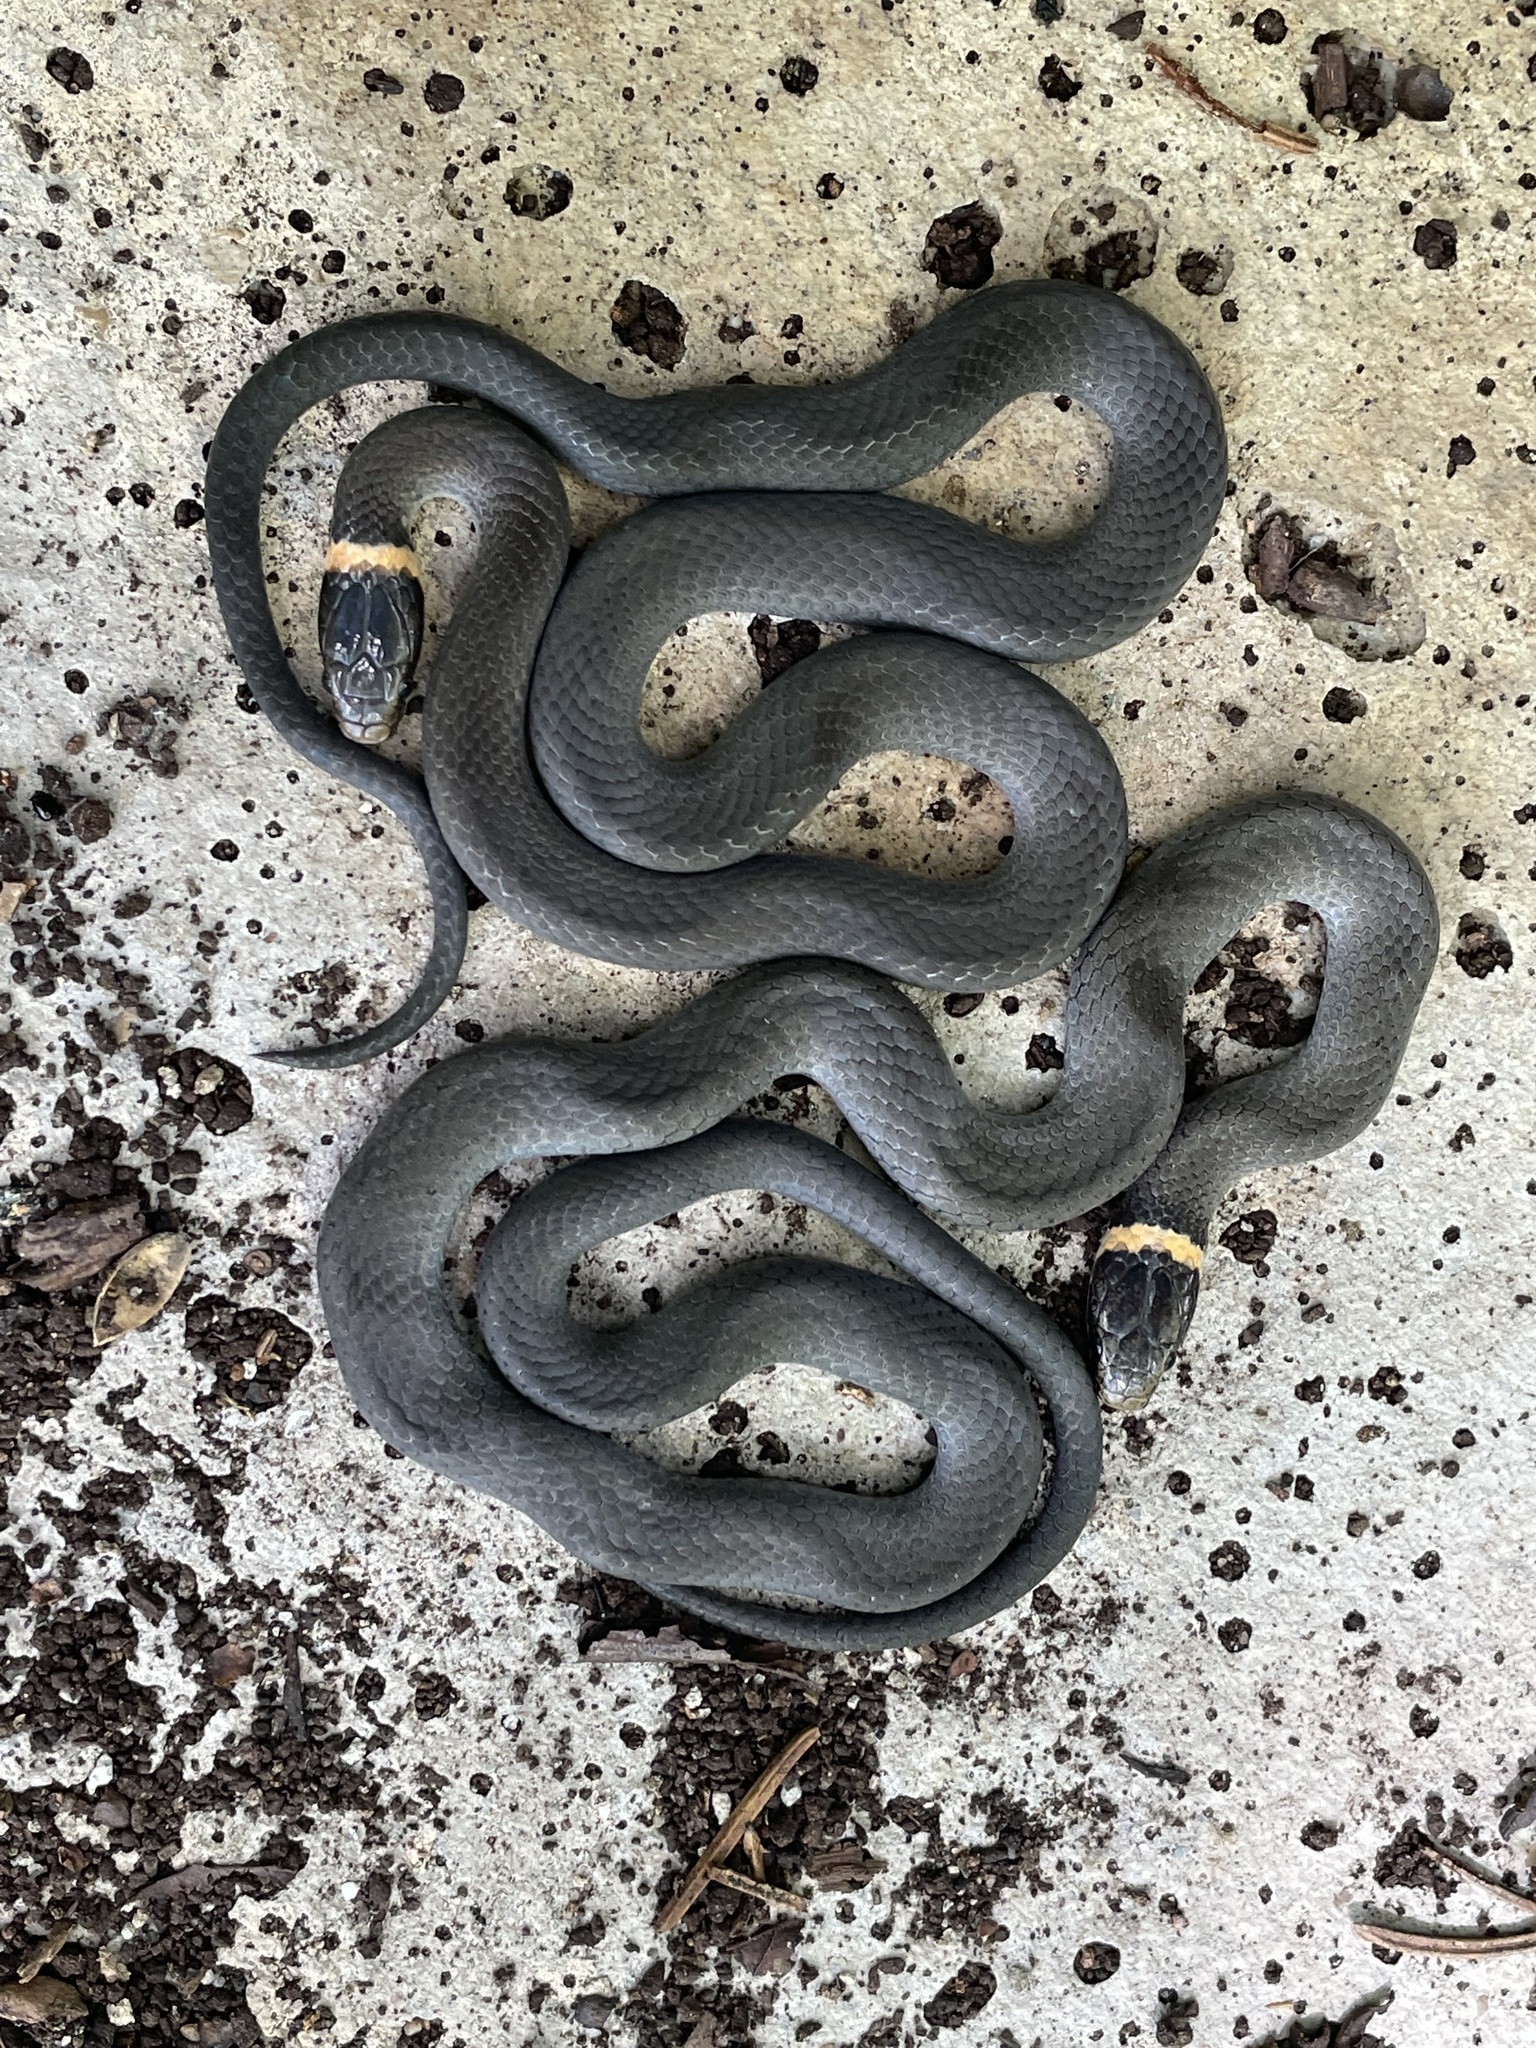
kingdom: Animalia
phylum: Chordata
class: Squamata
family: Colubridae
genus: Diadophis
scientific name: Diadophis punctatus
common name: Ringneck snake
